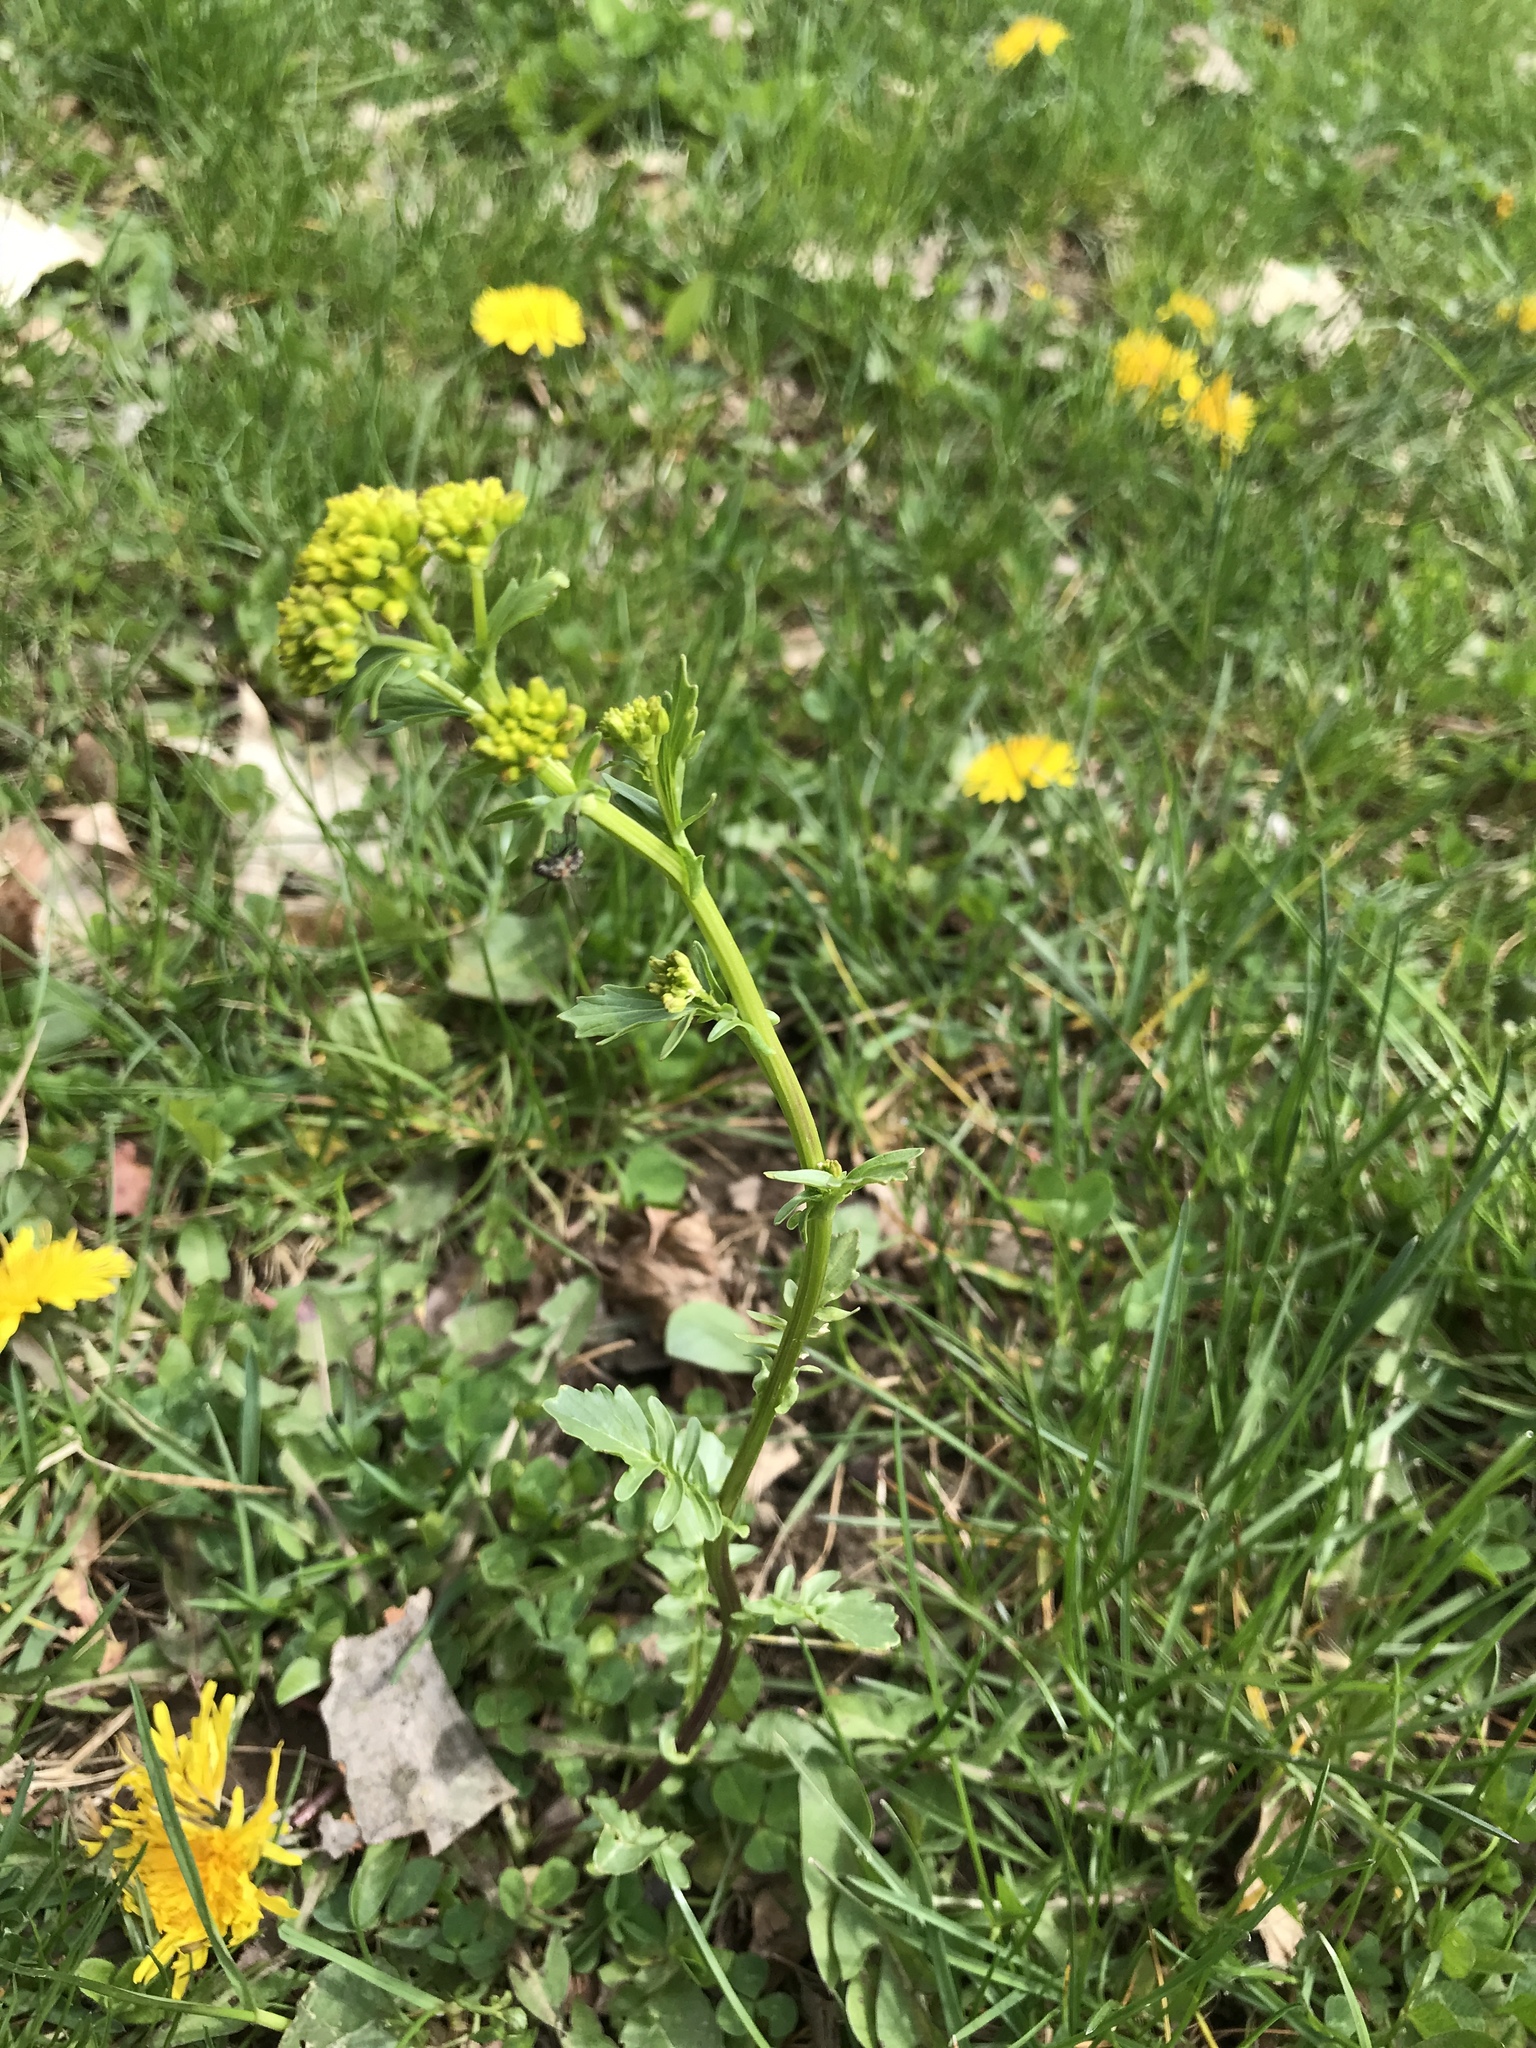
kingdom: Plantae
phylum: Tracheophyta
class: Magnoliopsida
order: Brassicales
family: Brassicaceae
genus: Barbarea
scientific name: Barbarea vulgaris
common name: Cressy-greens
